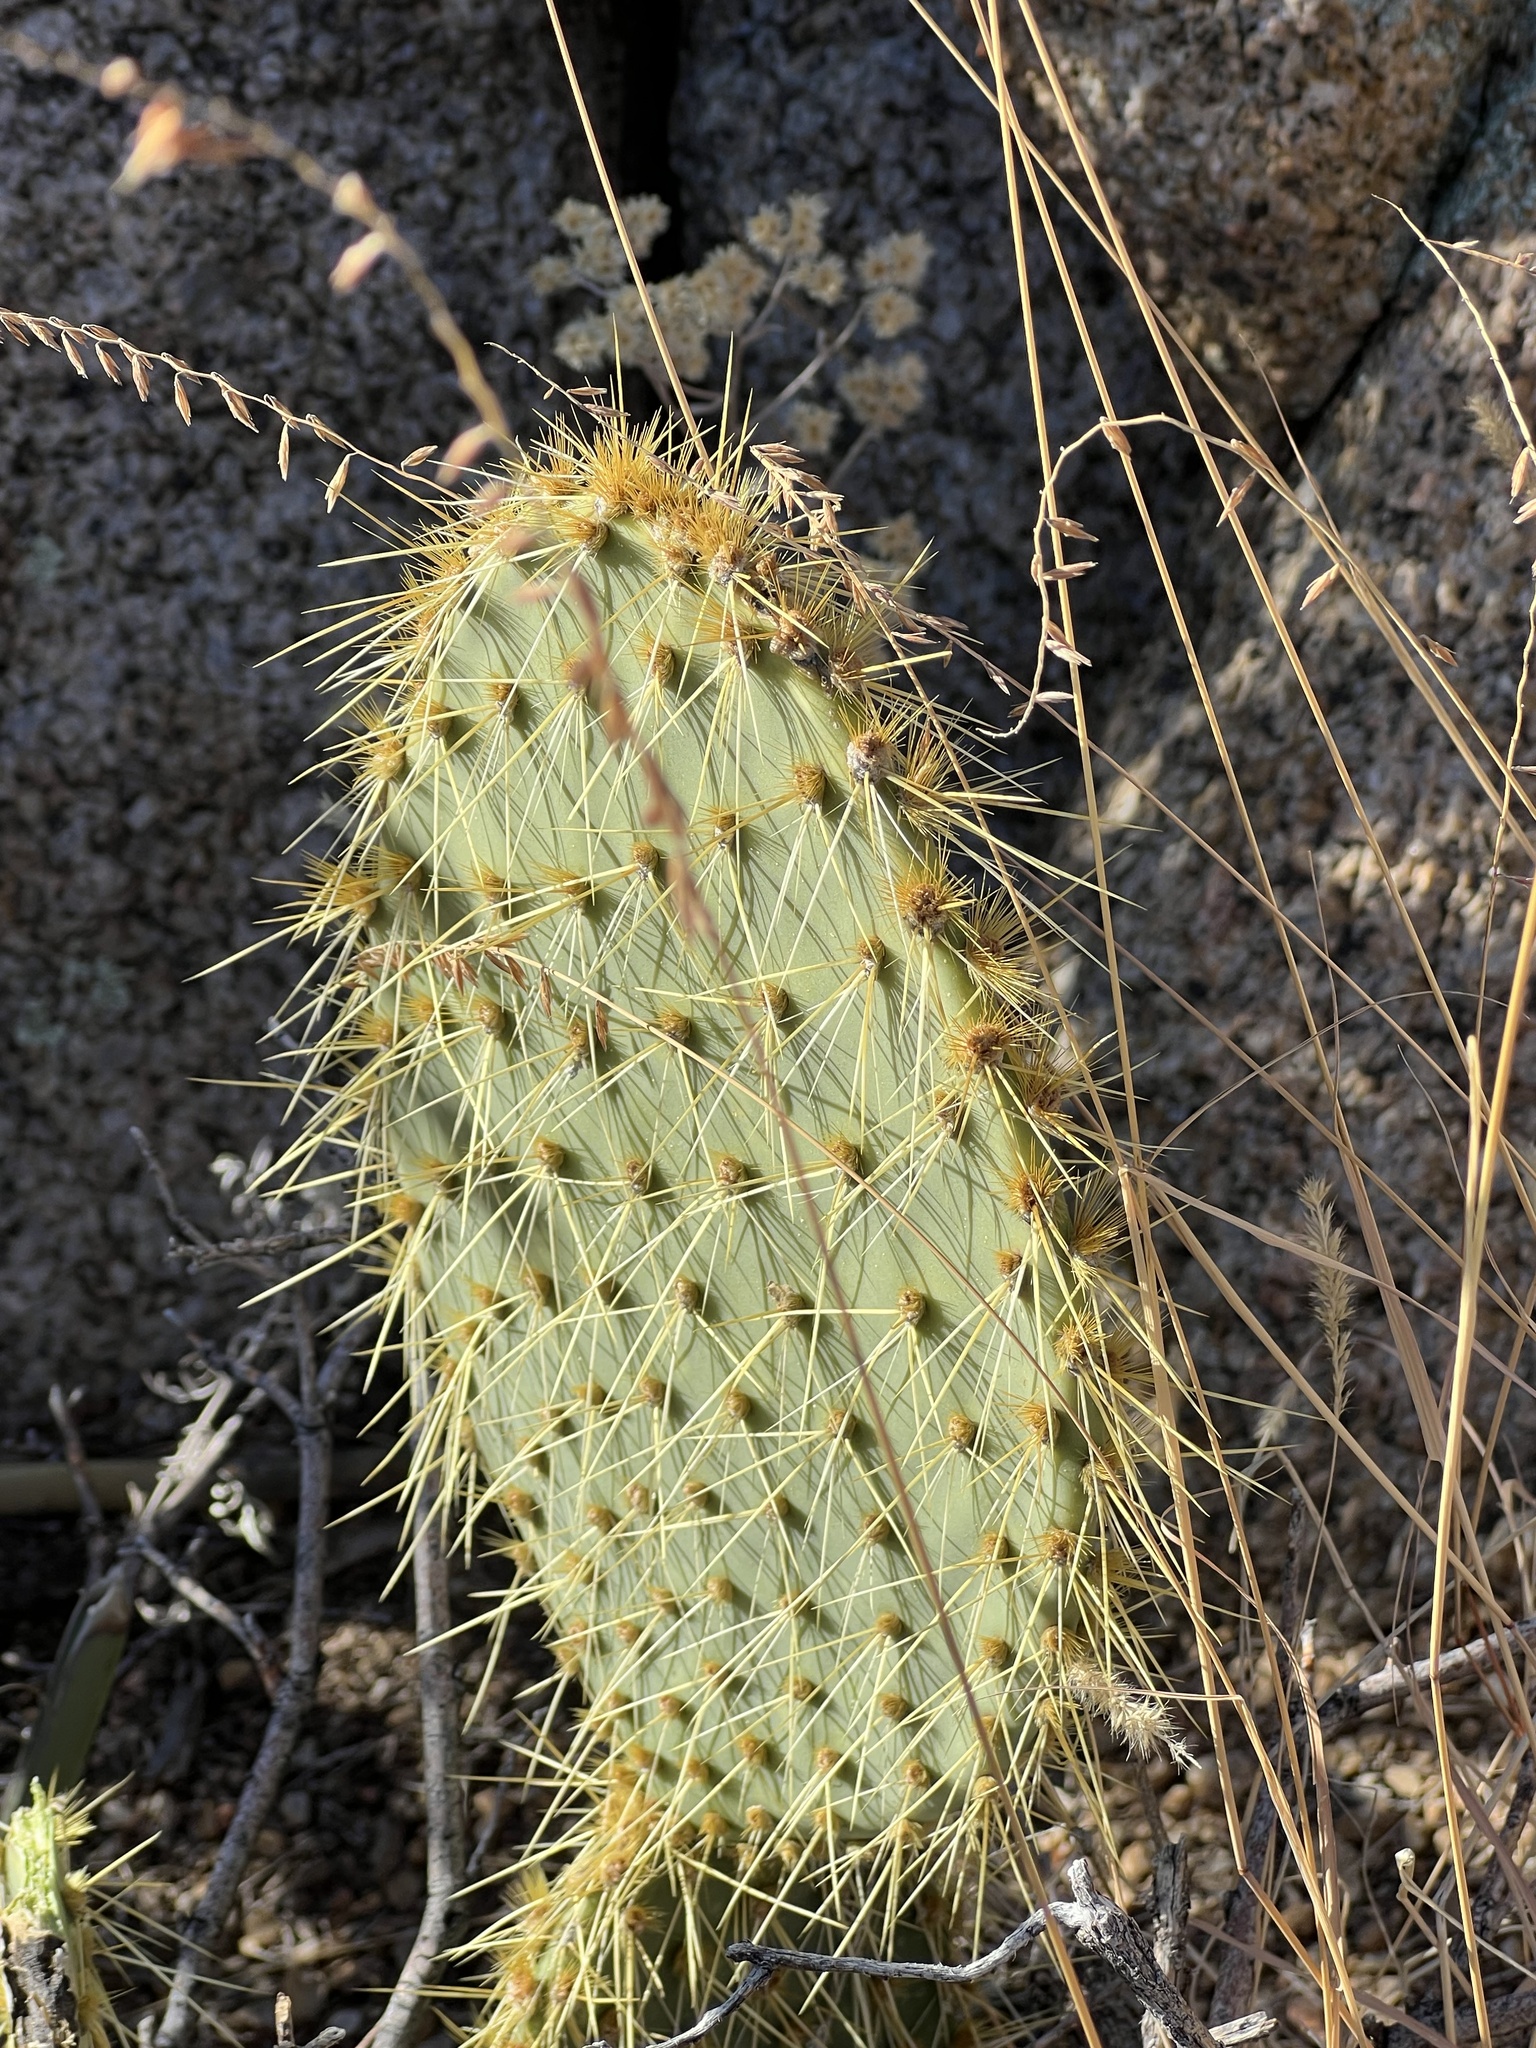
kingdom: Plantae
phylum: Tracheophyta
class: Magnoliopsida
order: Caryophyllales
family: Cactaceae
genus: Opuntia
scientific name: Opuntia chlorotica
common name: Dollar-joint prickly-pear
